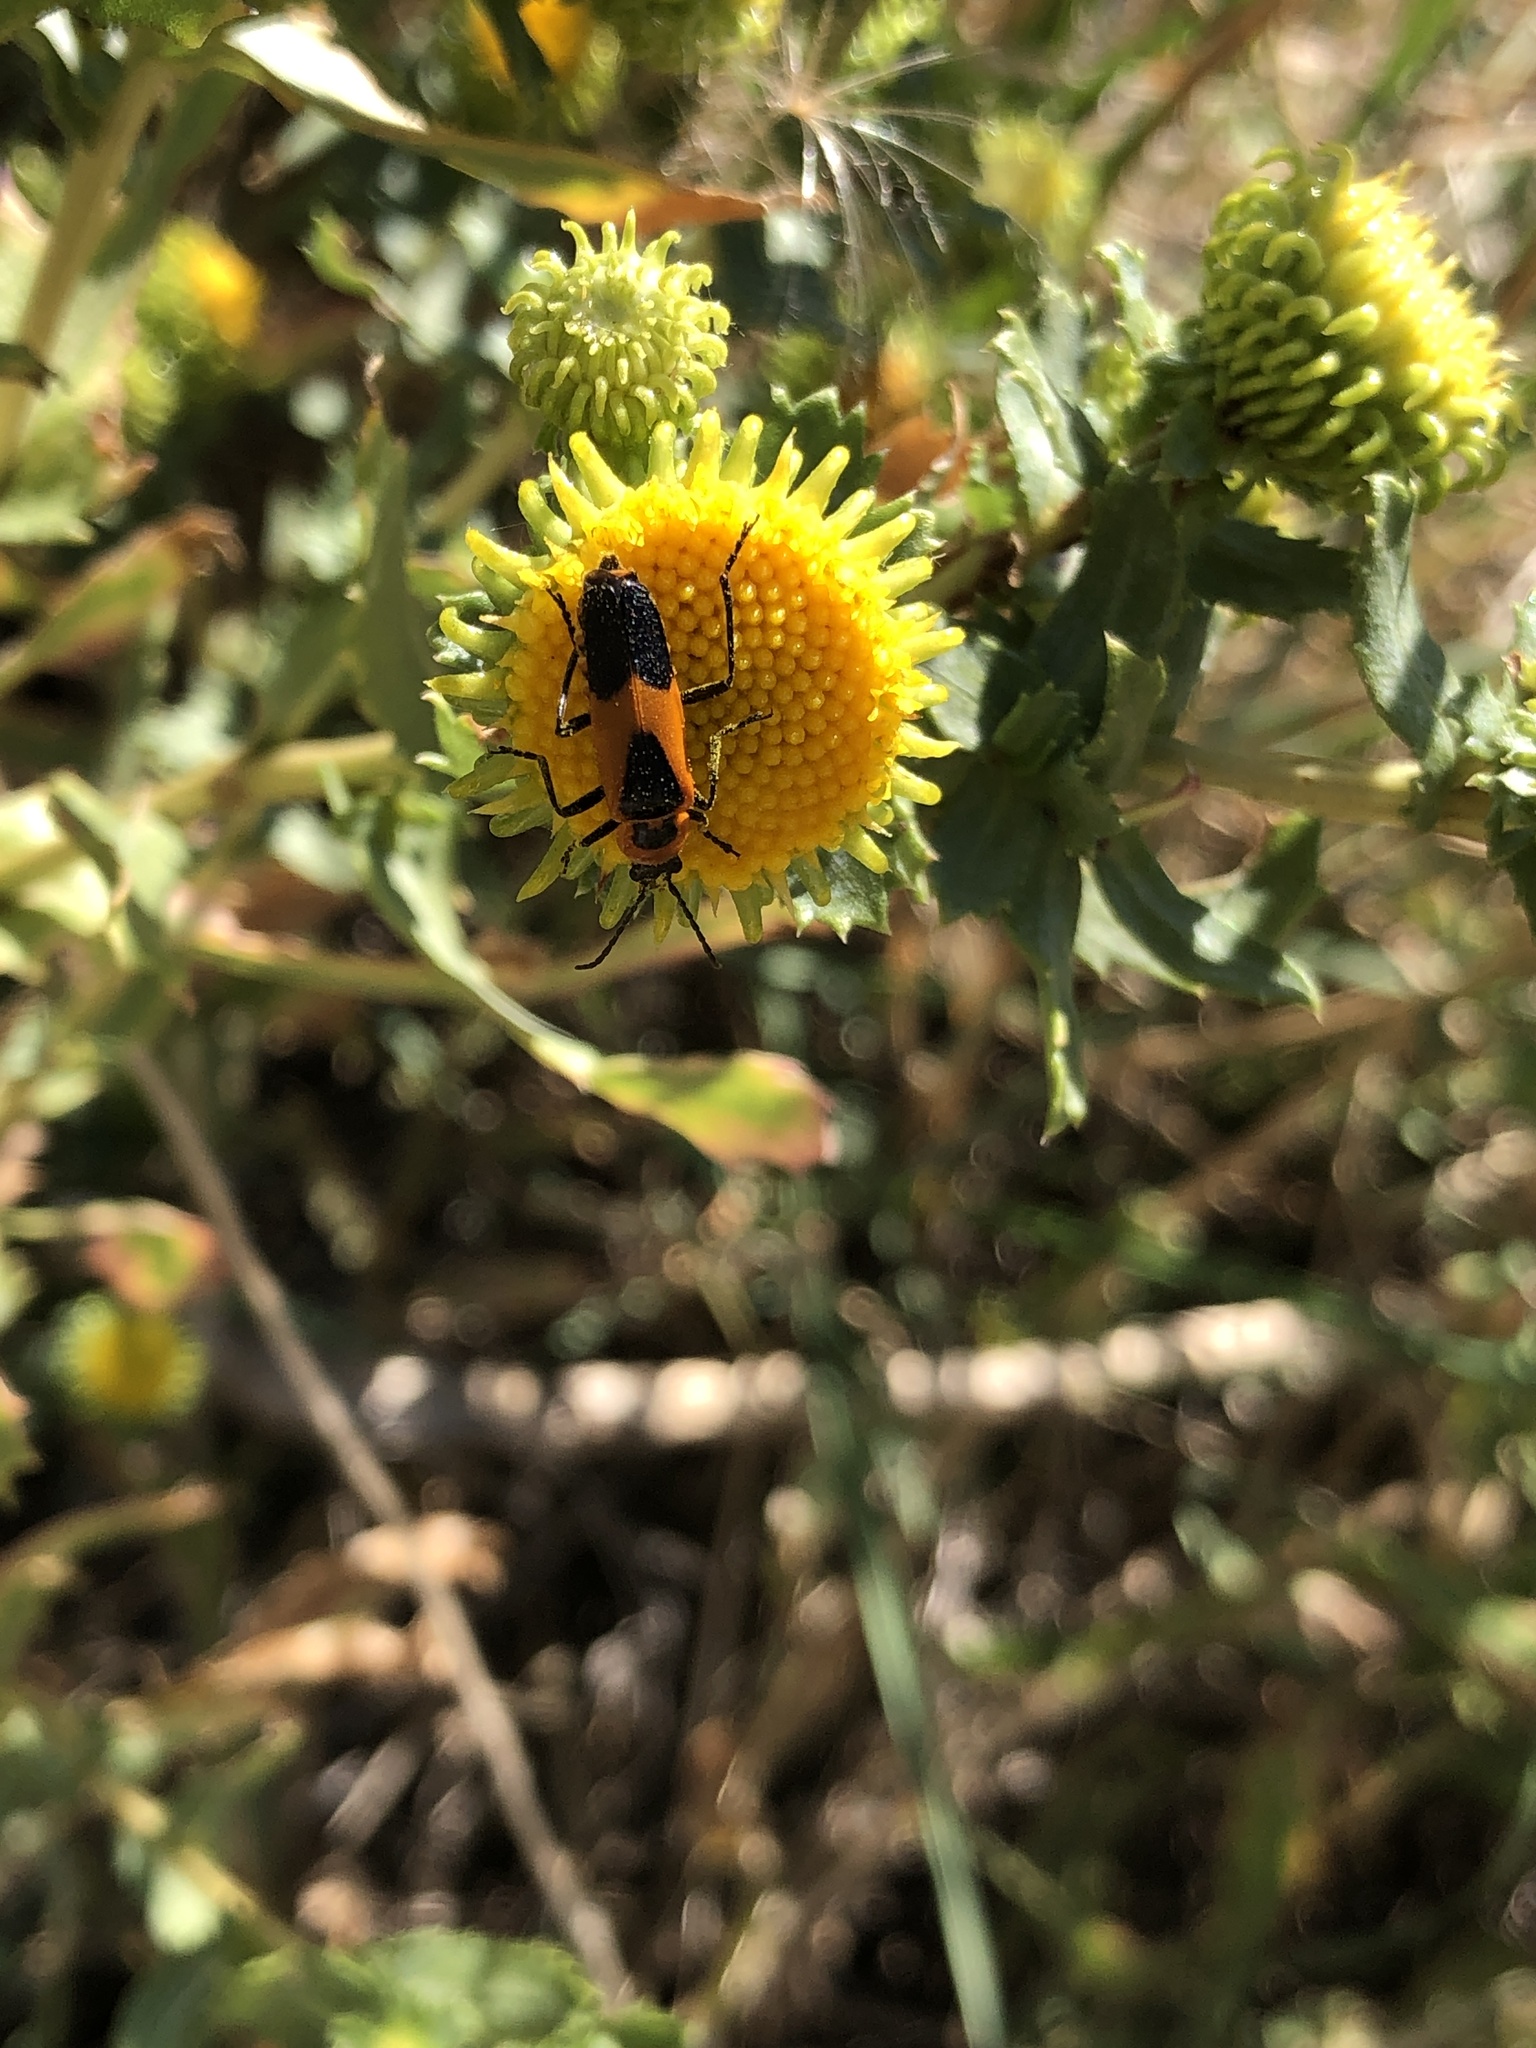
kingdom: Animalia
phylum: Arthropoda
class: Insecta
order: Coleoptera
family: Cantharidae
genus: Chauliognathus
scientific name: Chauliognathus basalis
